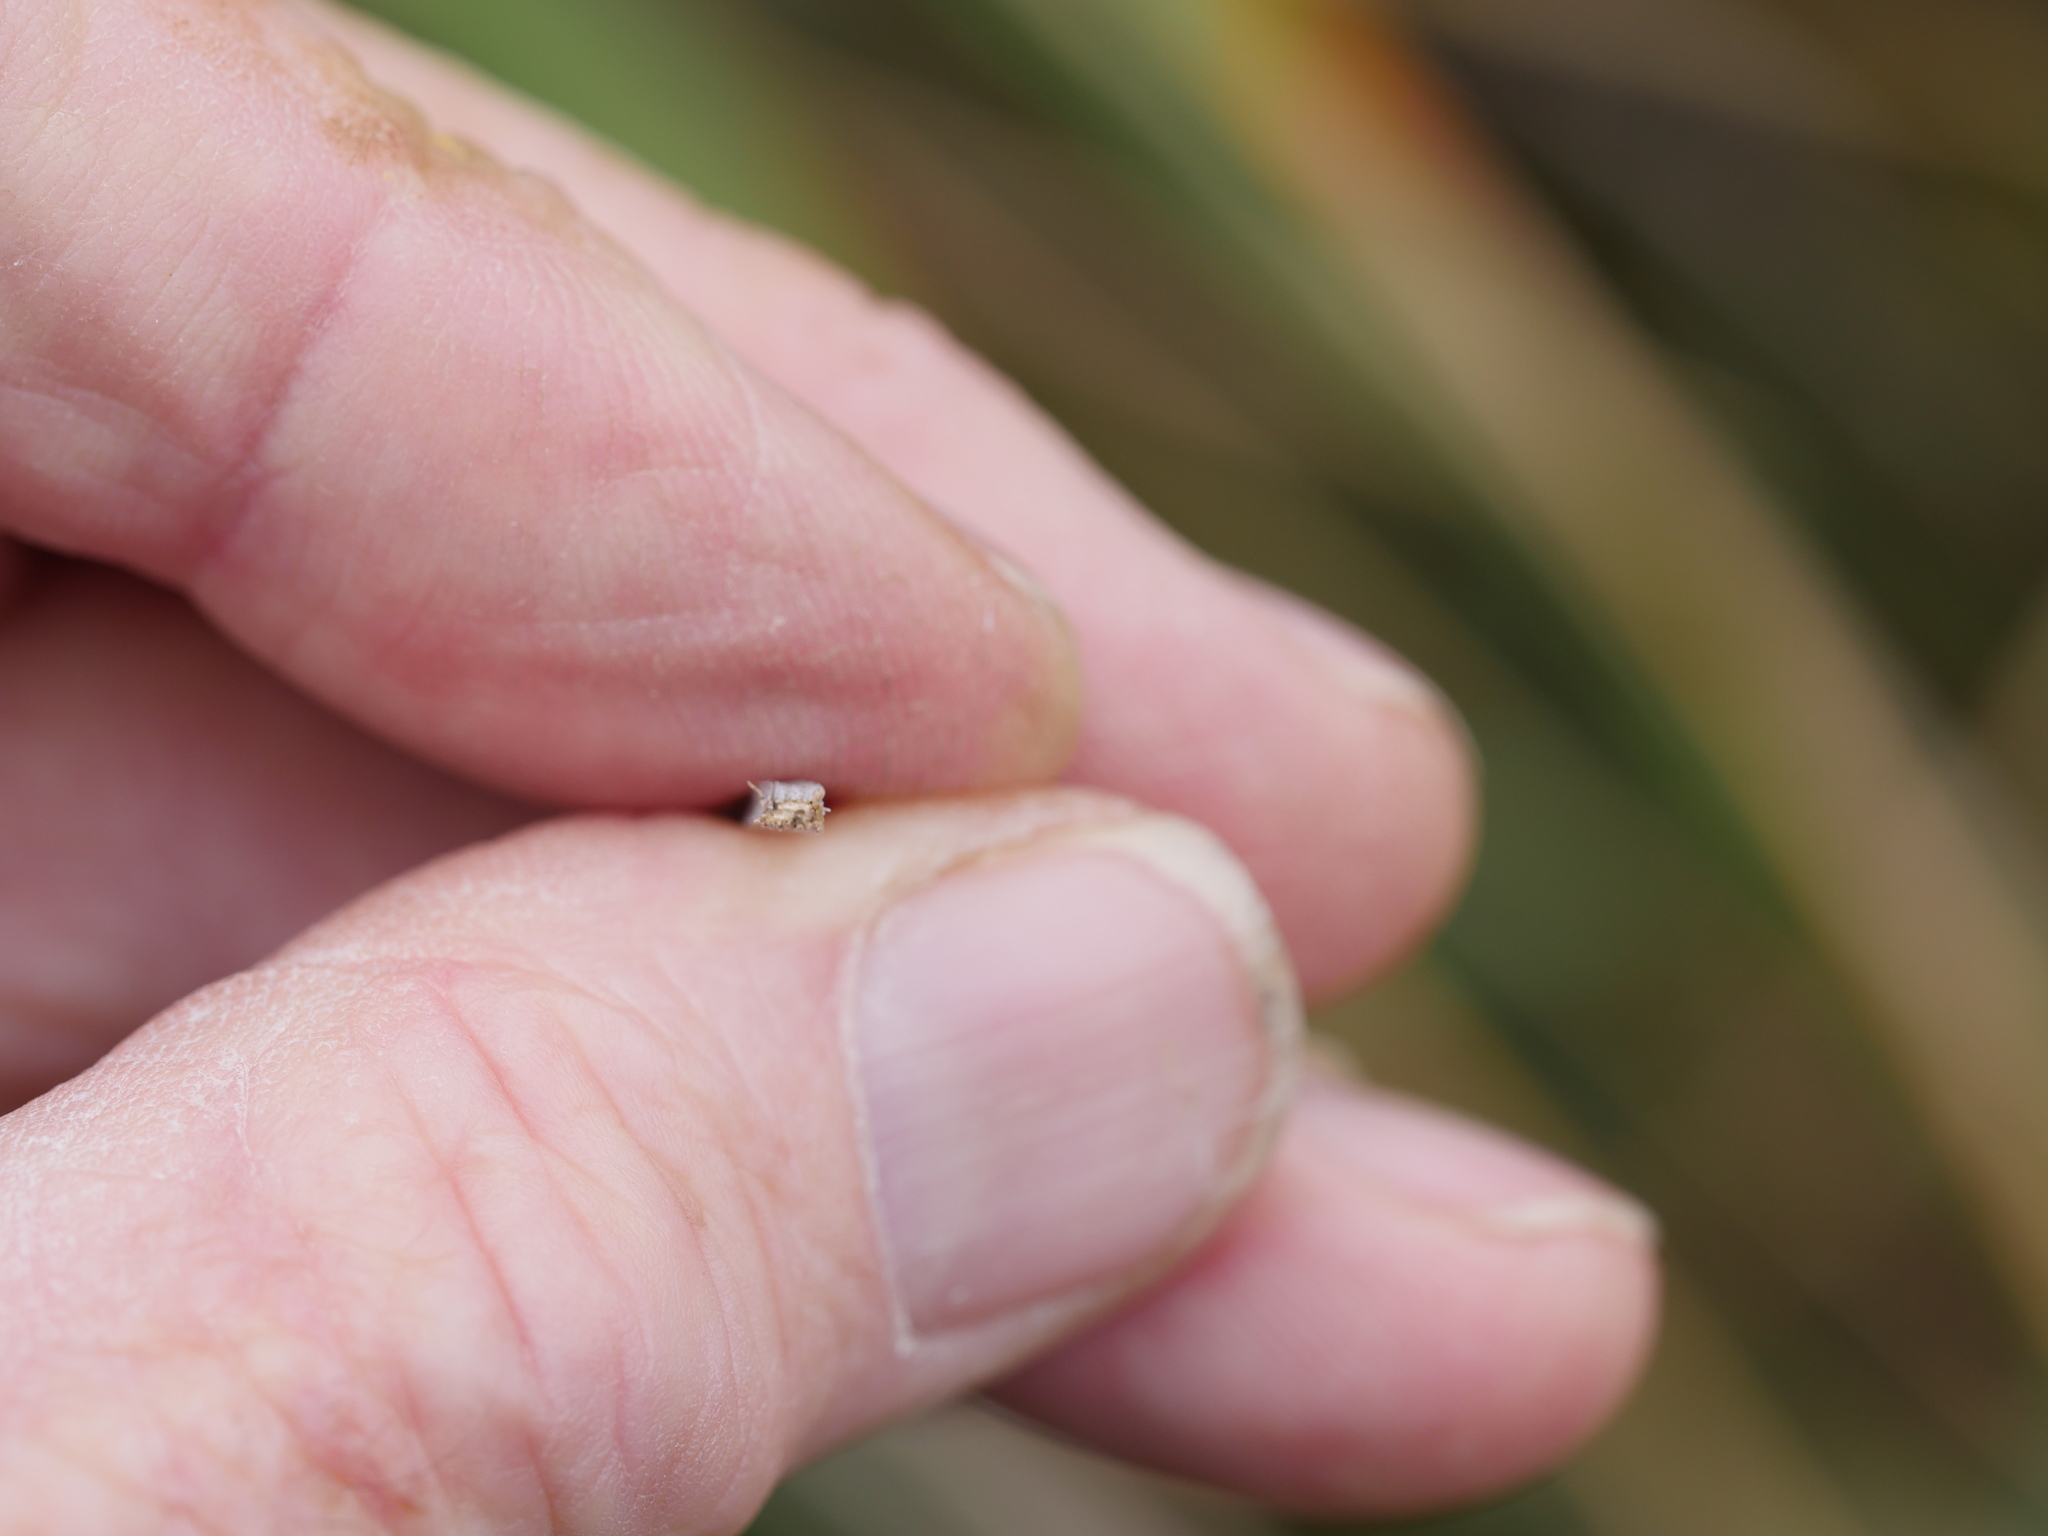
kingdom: Plantae
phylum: Tracheophyta
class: Liliopsida
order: Poales
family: Cyperaceae
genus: Lepidosperma
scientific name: Lepidosperma australe
